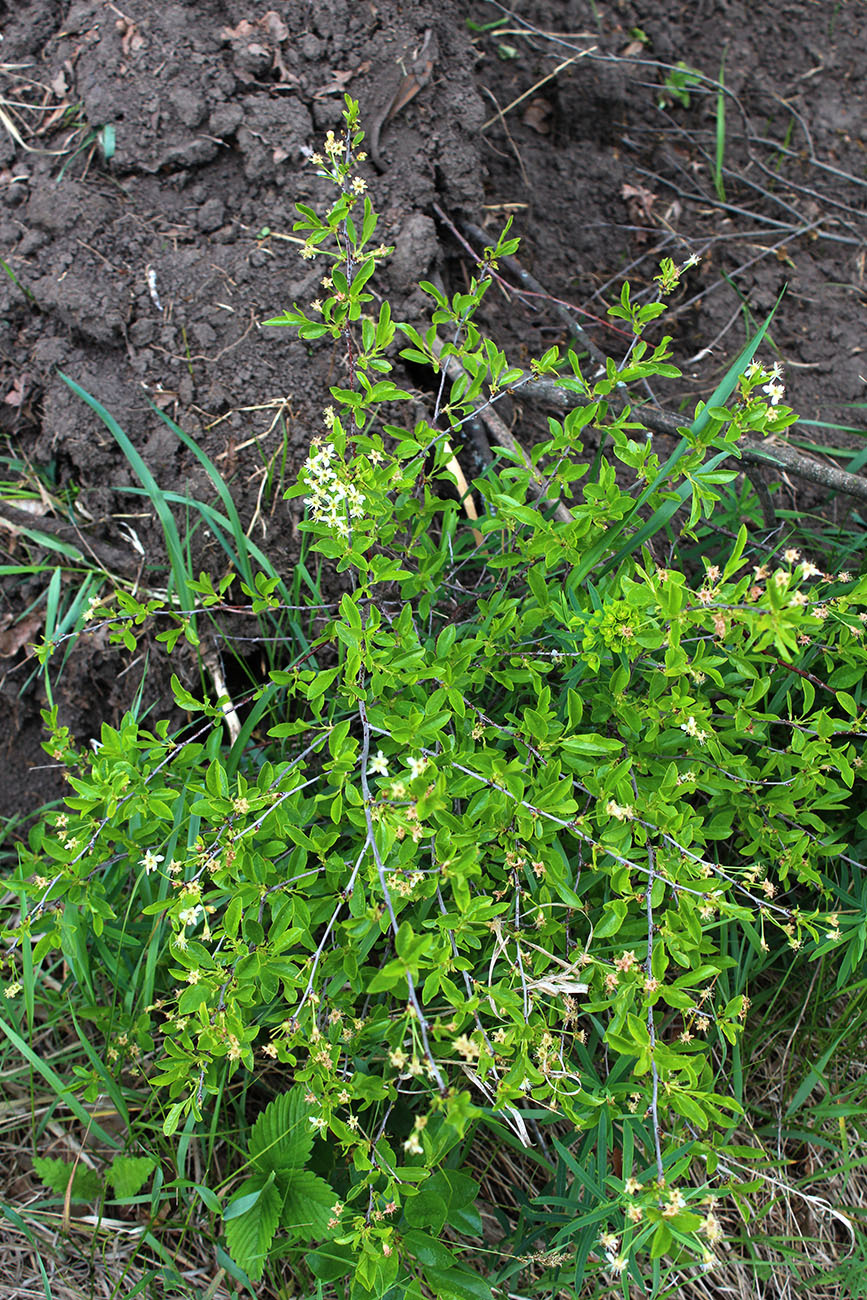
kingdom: Plantae
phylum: Tracheophyta
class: Magnoliopsida
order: Rosales
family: Rosaceae
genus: Prunus
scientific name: Prunus fruticosa
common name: European dwarf cherry
